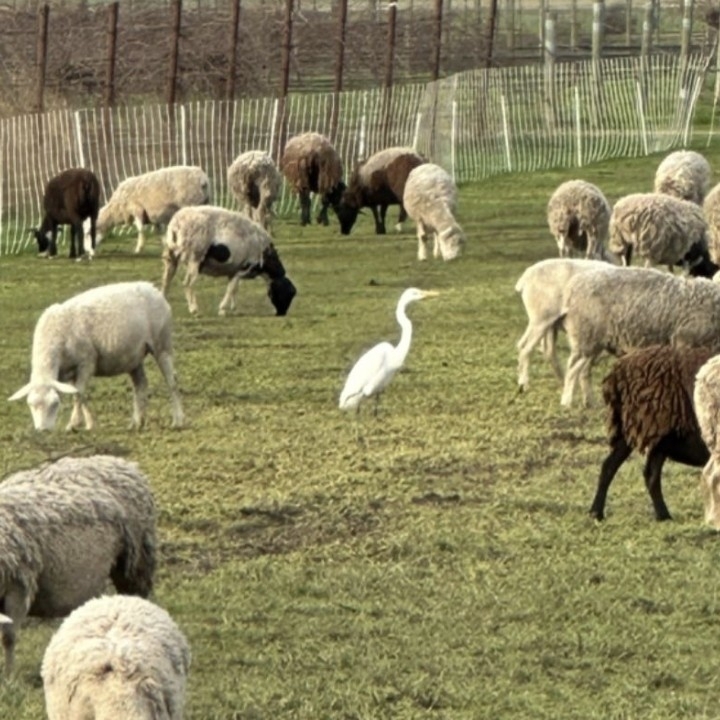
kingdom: Animalia
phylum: Chordata
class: Aves
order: Pelecaniformes
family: Ardeidae
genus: Ardea
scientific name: Ardea alba
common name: Great egret
